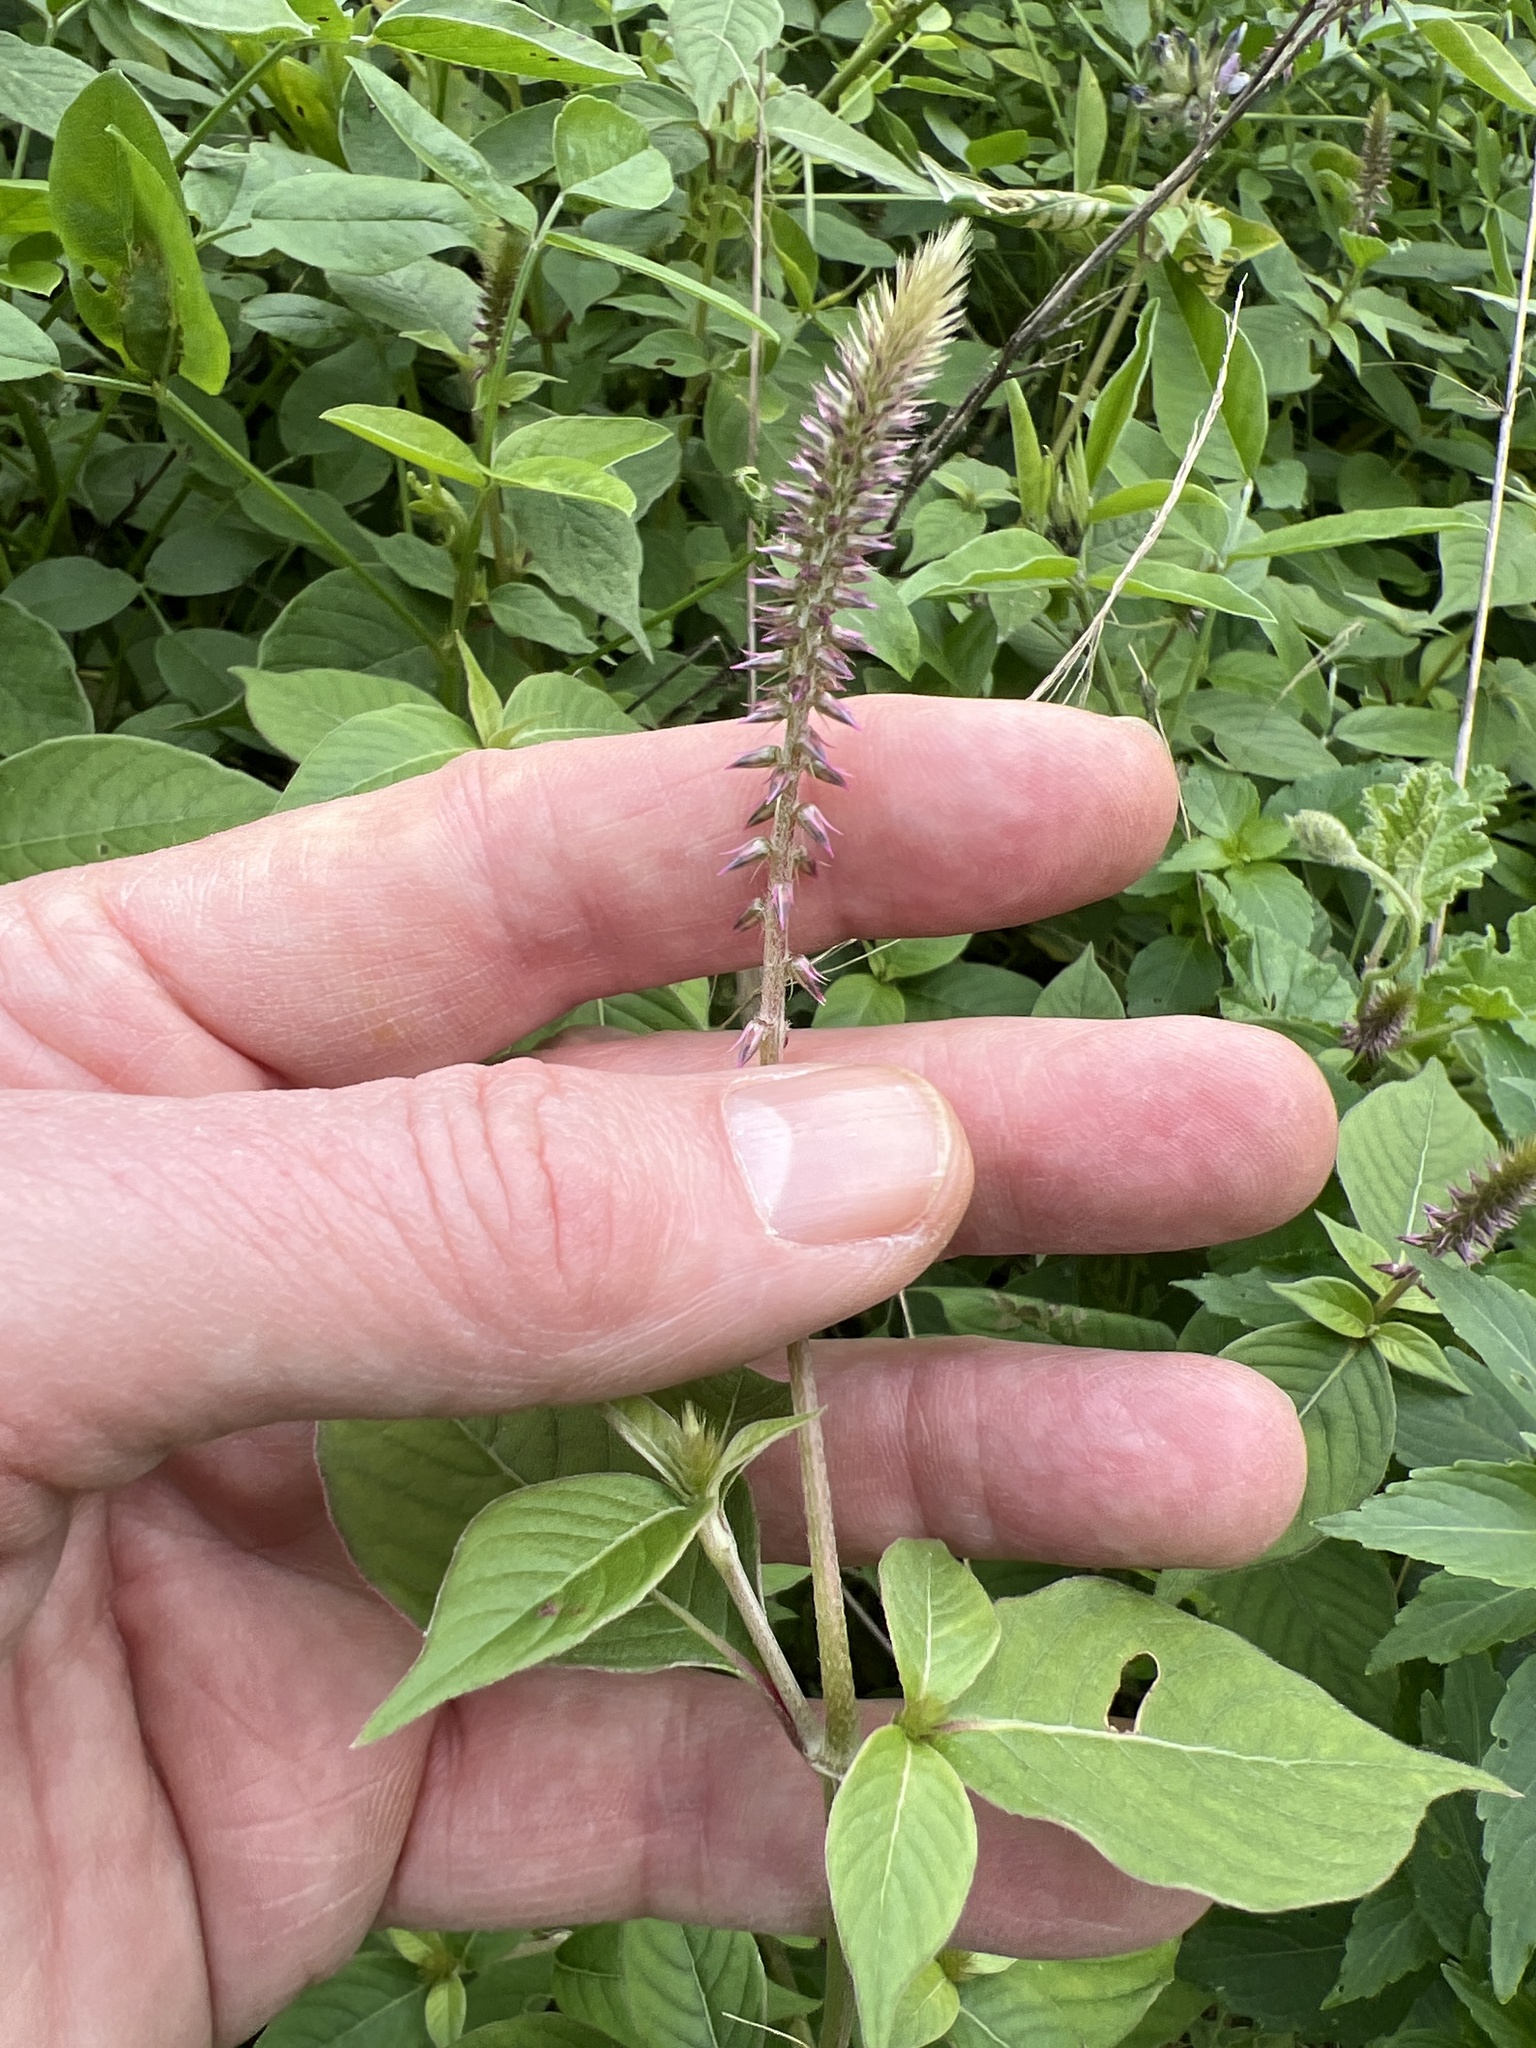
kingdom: Plantae
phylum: Tracheophyta
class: Magnoliopsida
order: Caryophyllales
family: Amaranthaceae
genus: Achyranthes
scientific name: Achyranthes aspera
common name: Devil's horsewhip
